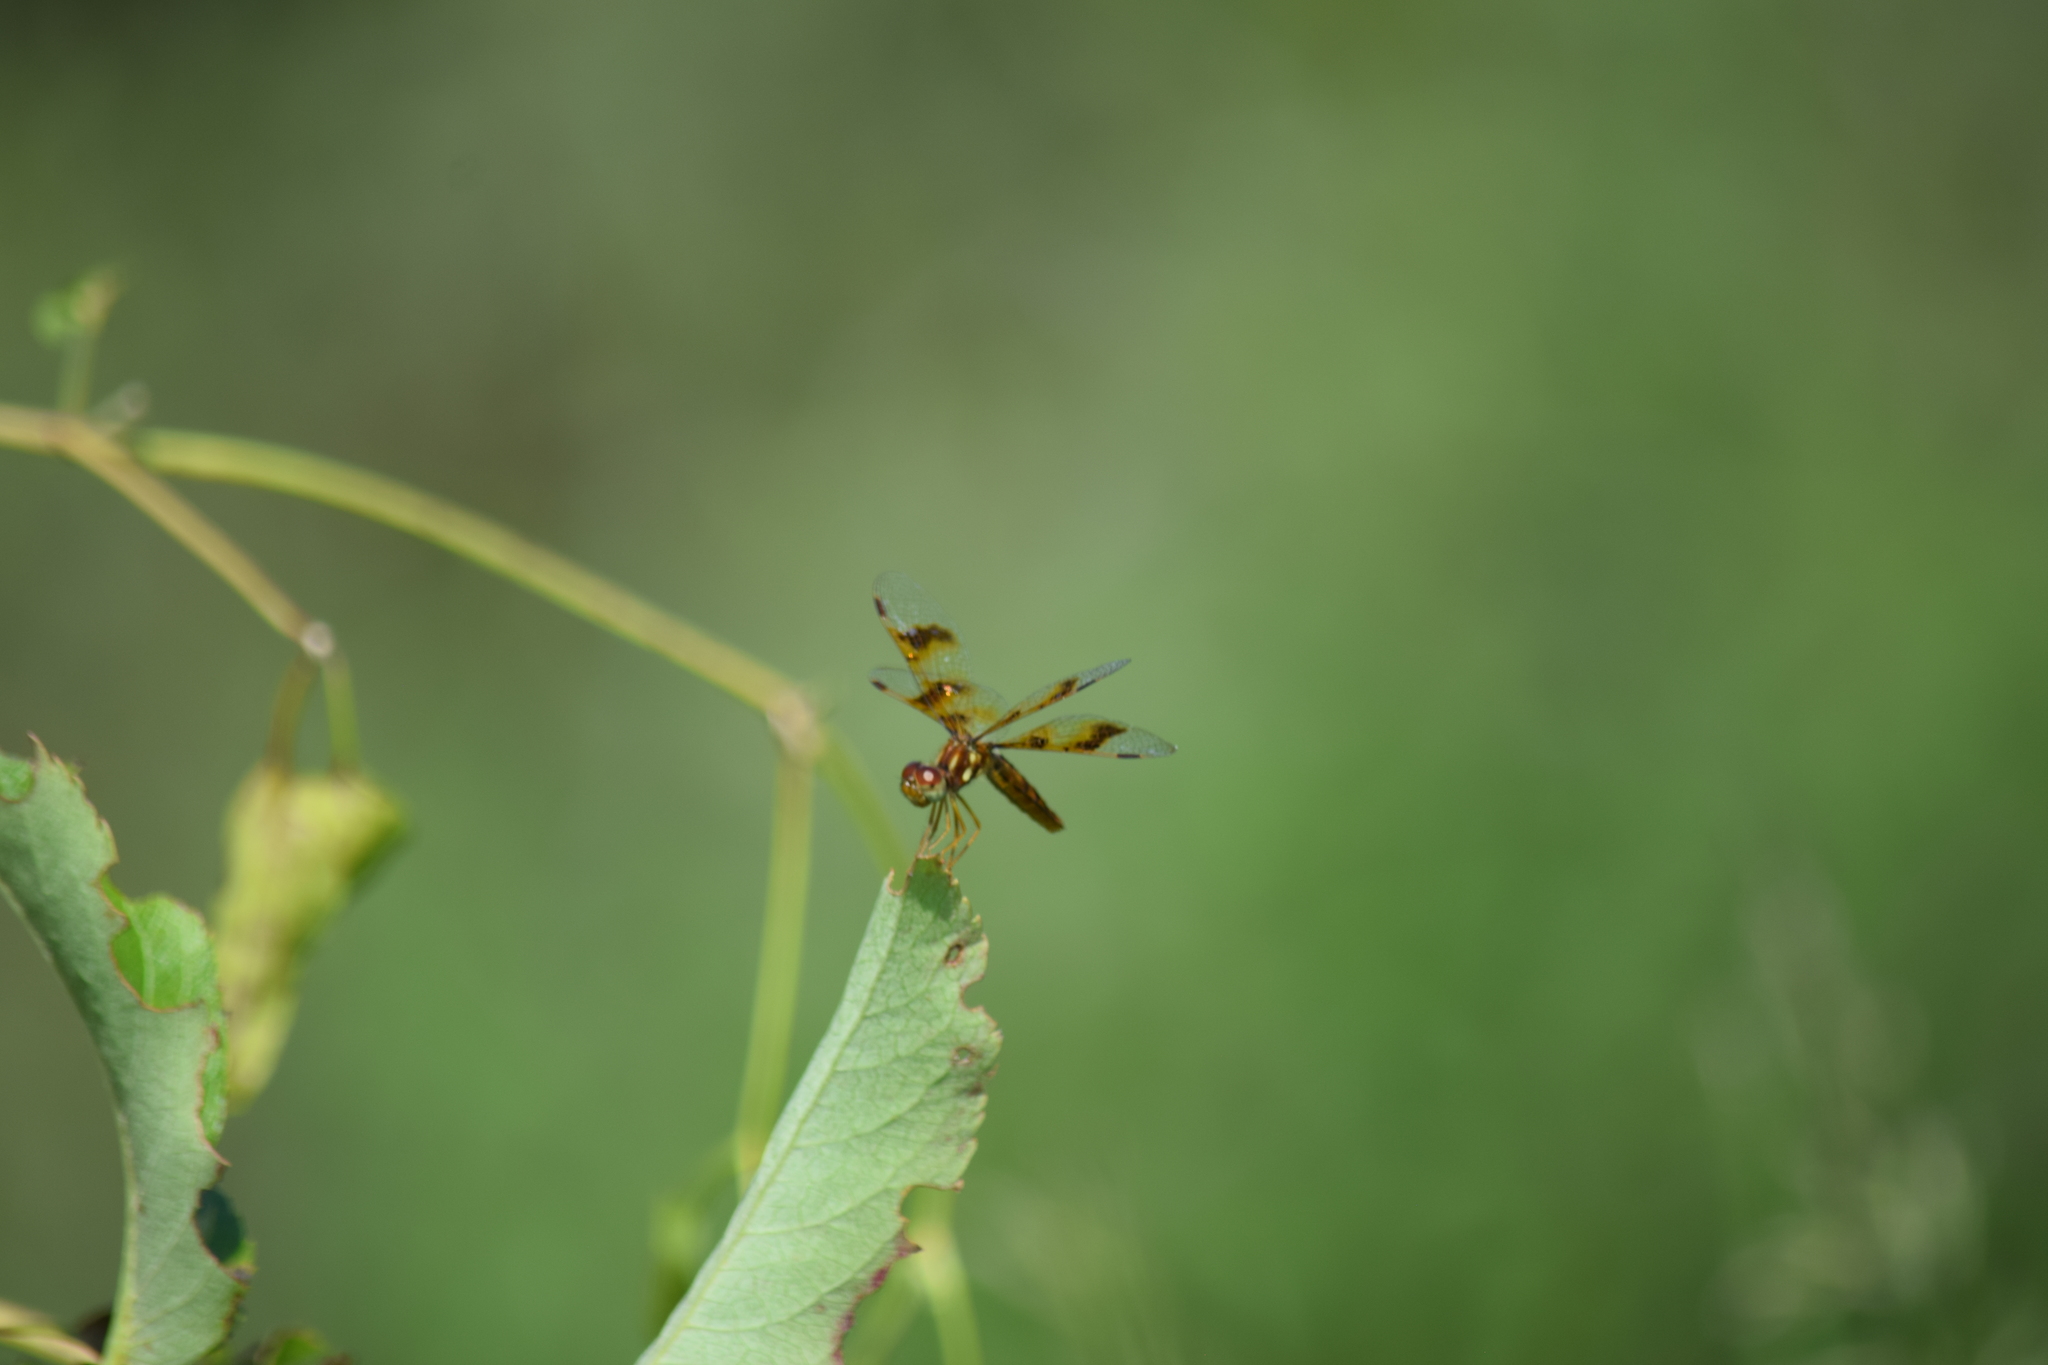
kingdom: Animalia
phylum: Arthropoda
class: Insecta
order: Odonata
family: Libellulidae
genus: Perithemis
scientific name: Perithemis tenera
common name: Eastern amberwing
